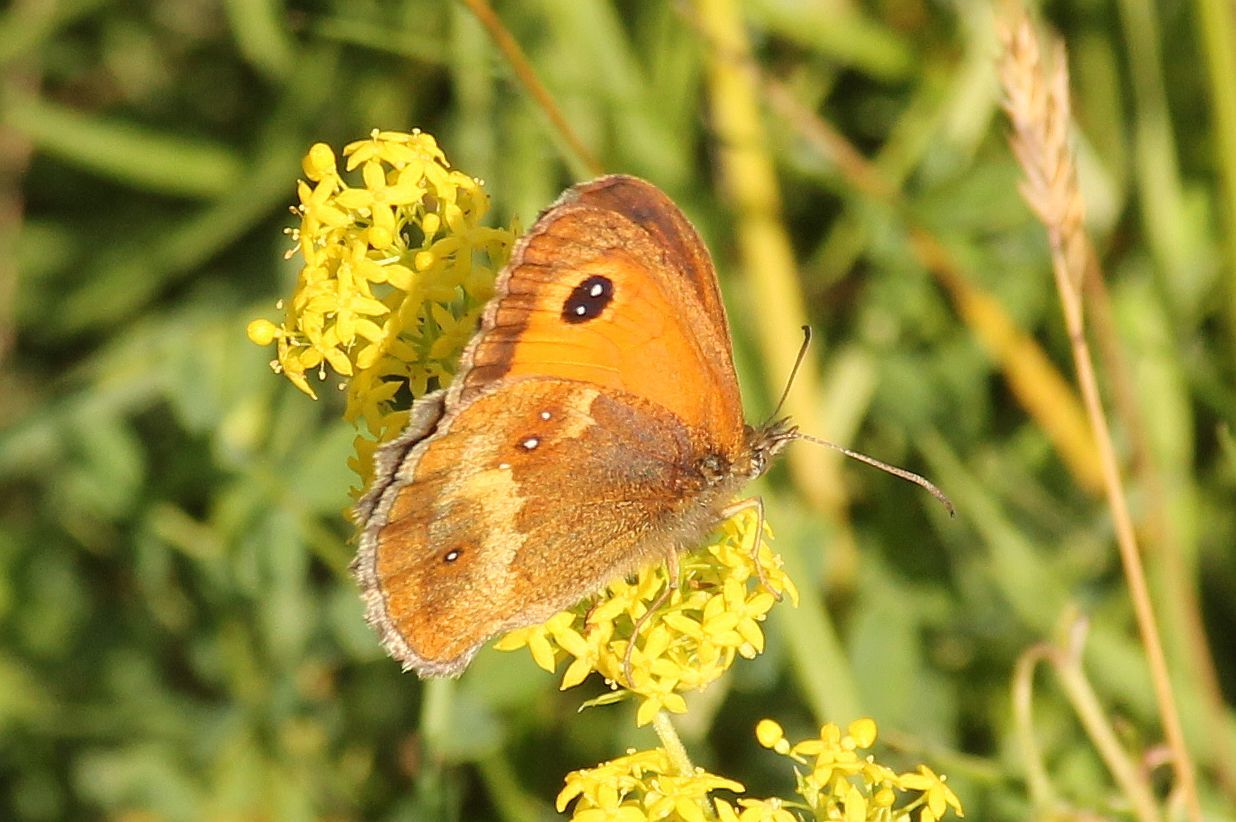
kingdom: Animalia
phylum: Arthropoda
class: Insecta
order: Lepidoptera
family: Nymphalidae
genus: Pyronia
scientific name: Pyronia tithonus
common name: Gatekeeper
